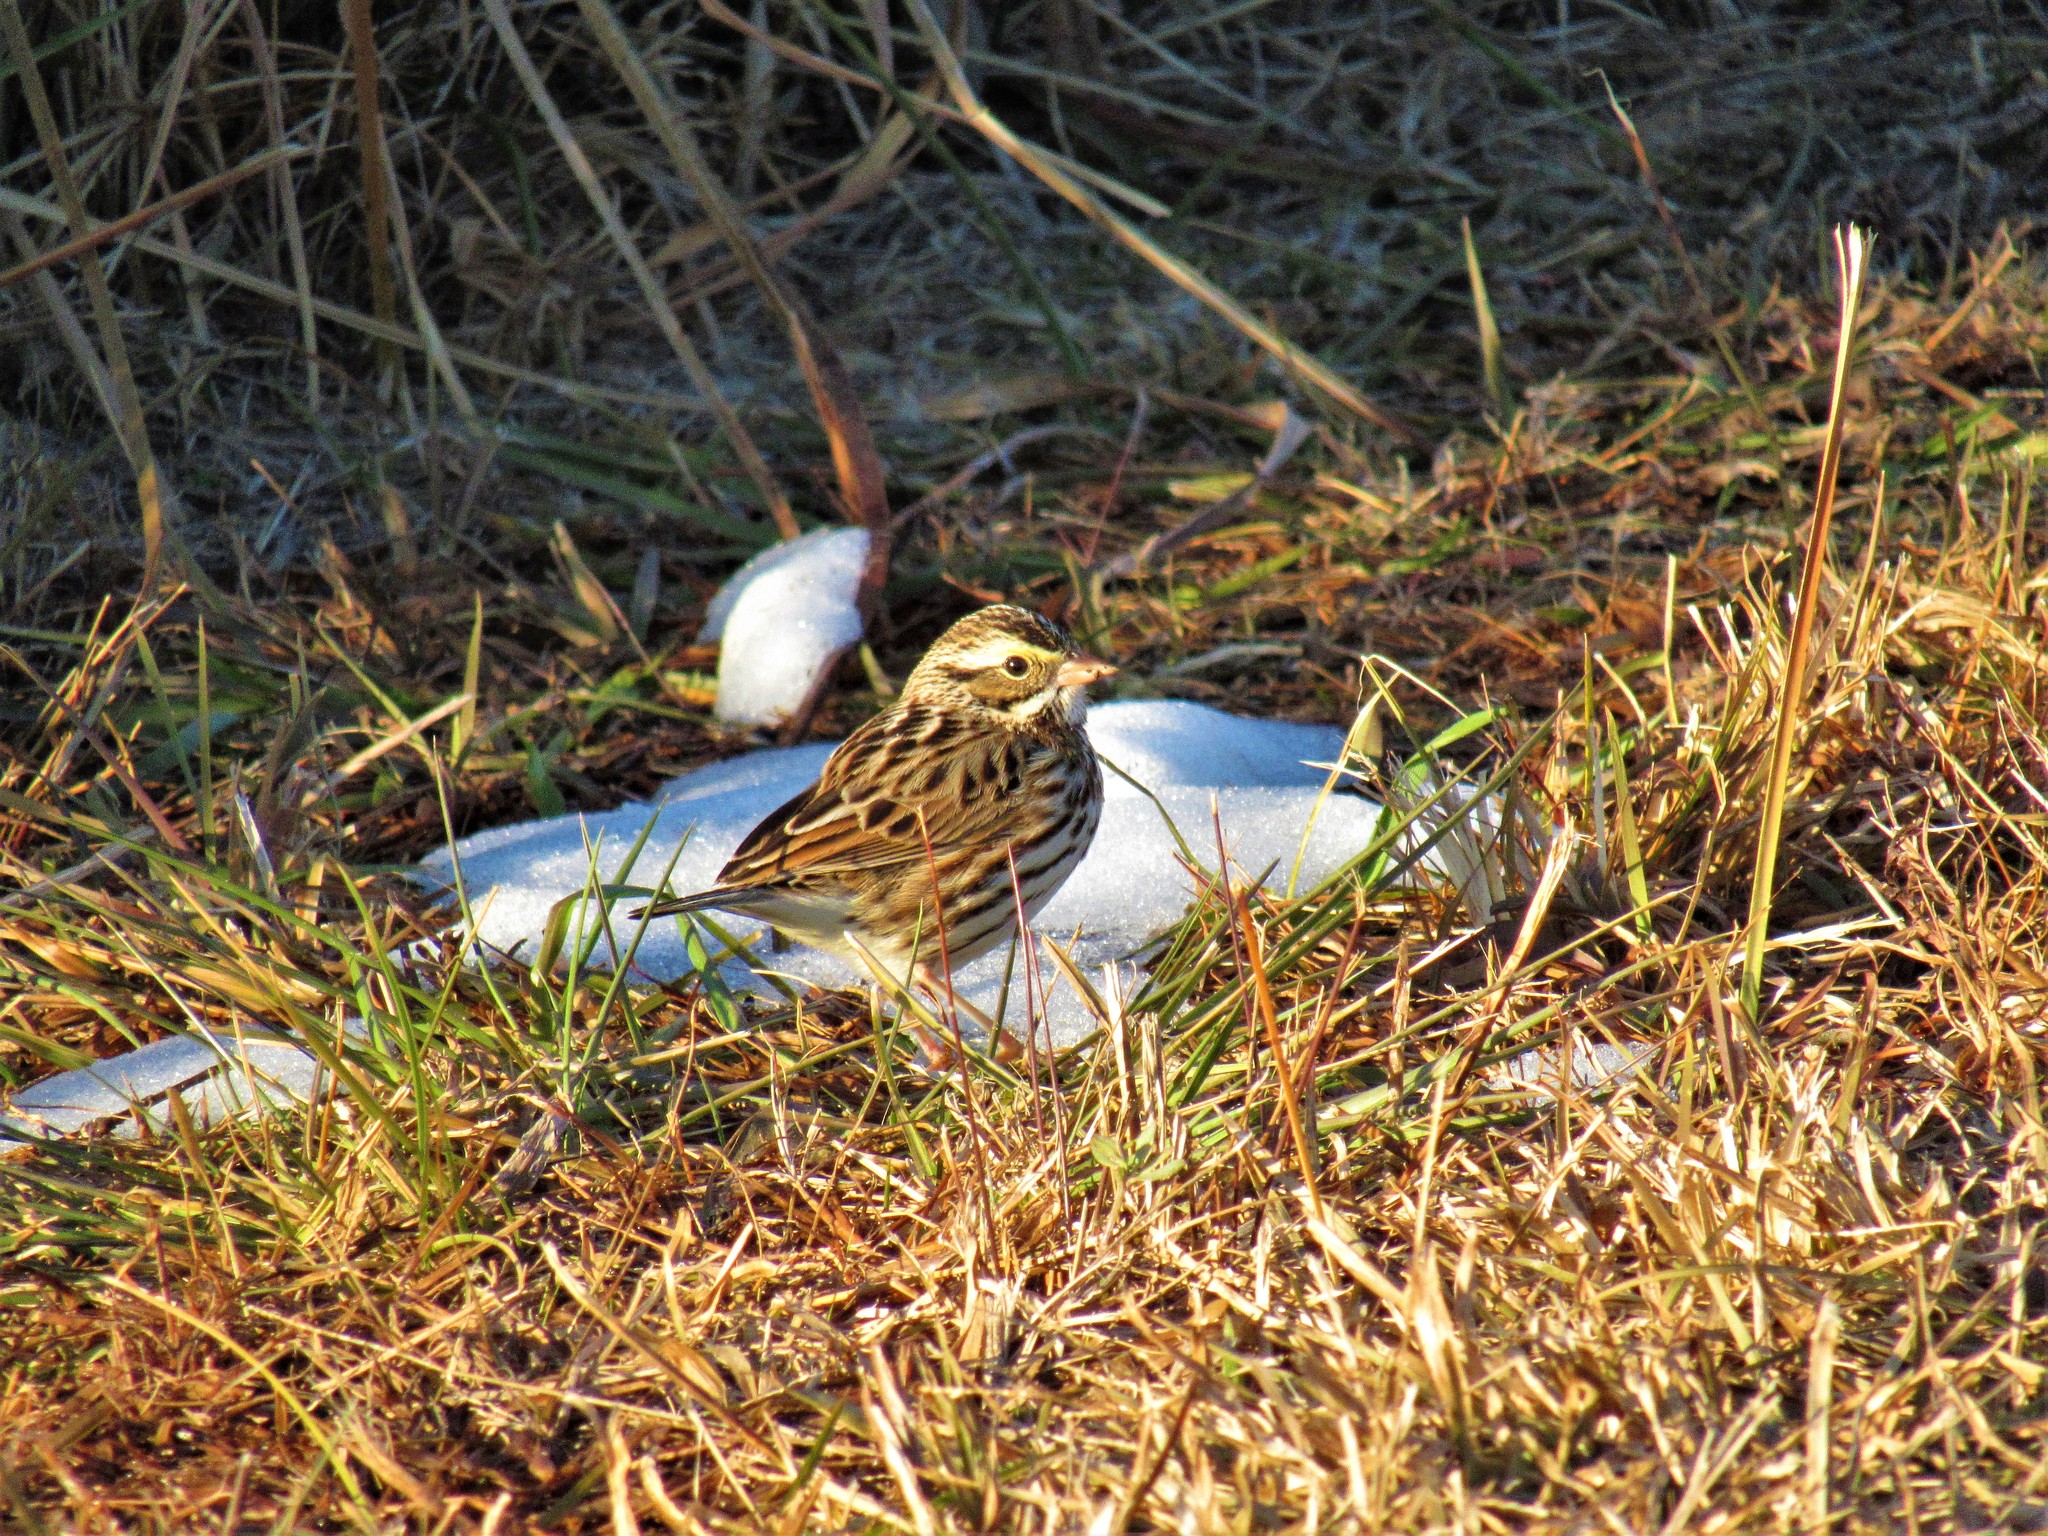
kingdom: Animalia
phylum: Chordata
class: Aves
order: Passeriformes
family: Passerellidae
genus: Passerculus
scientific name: Passerculus sandwichensis
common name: Savannah sparrow
